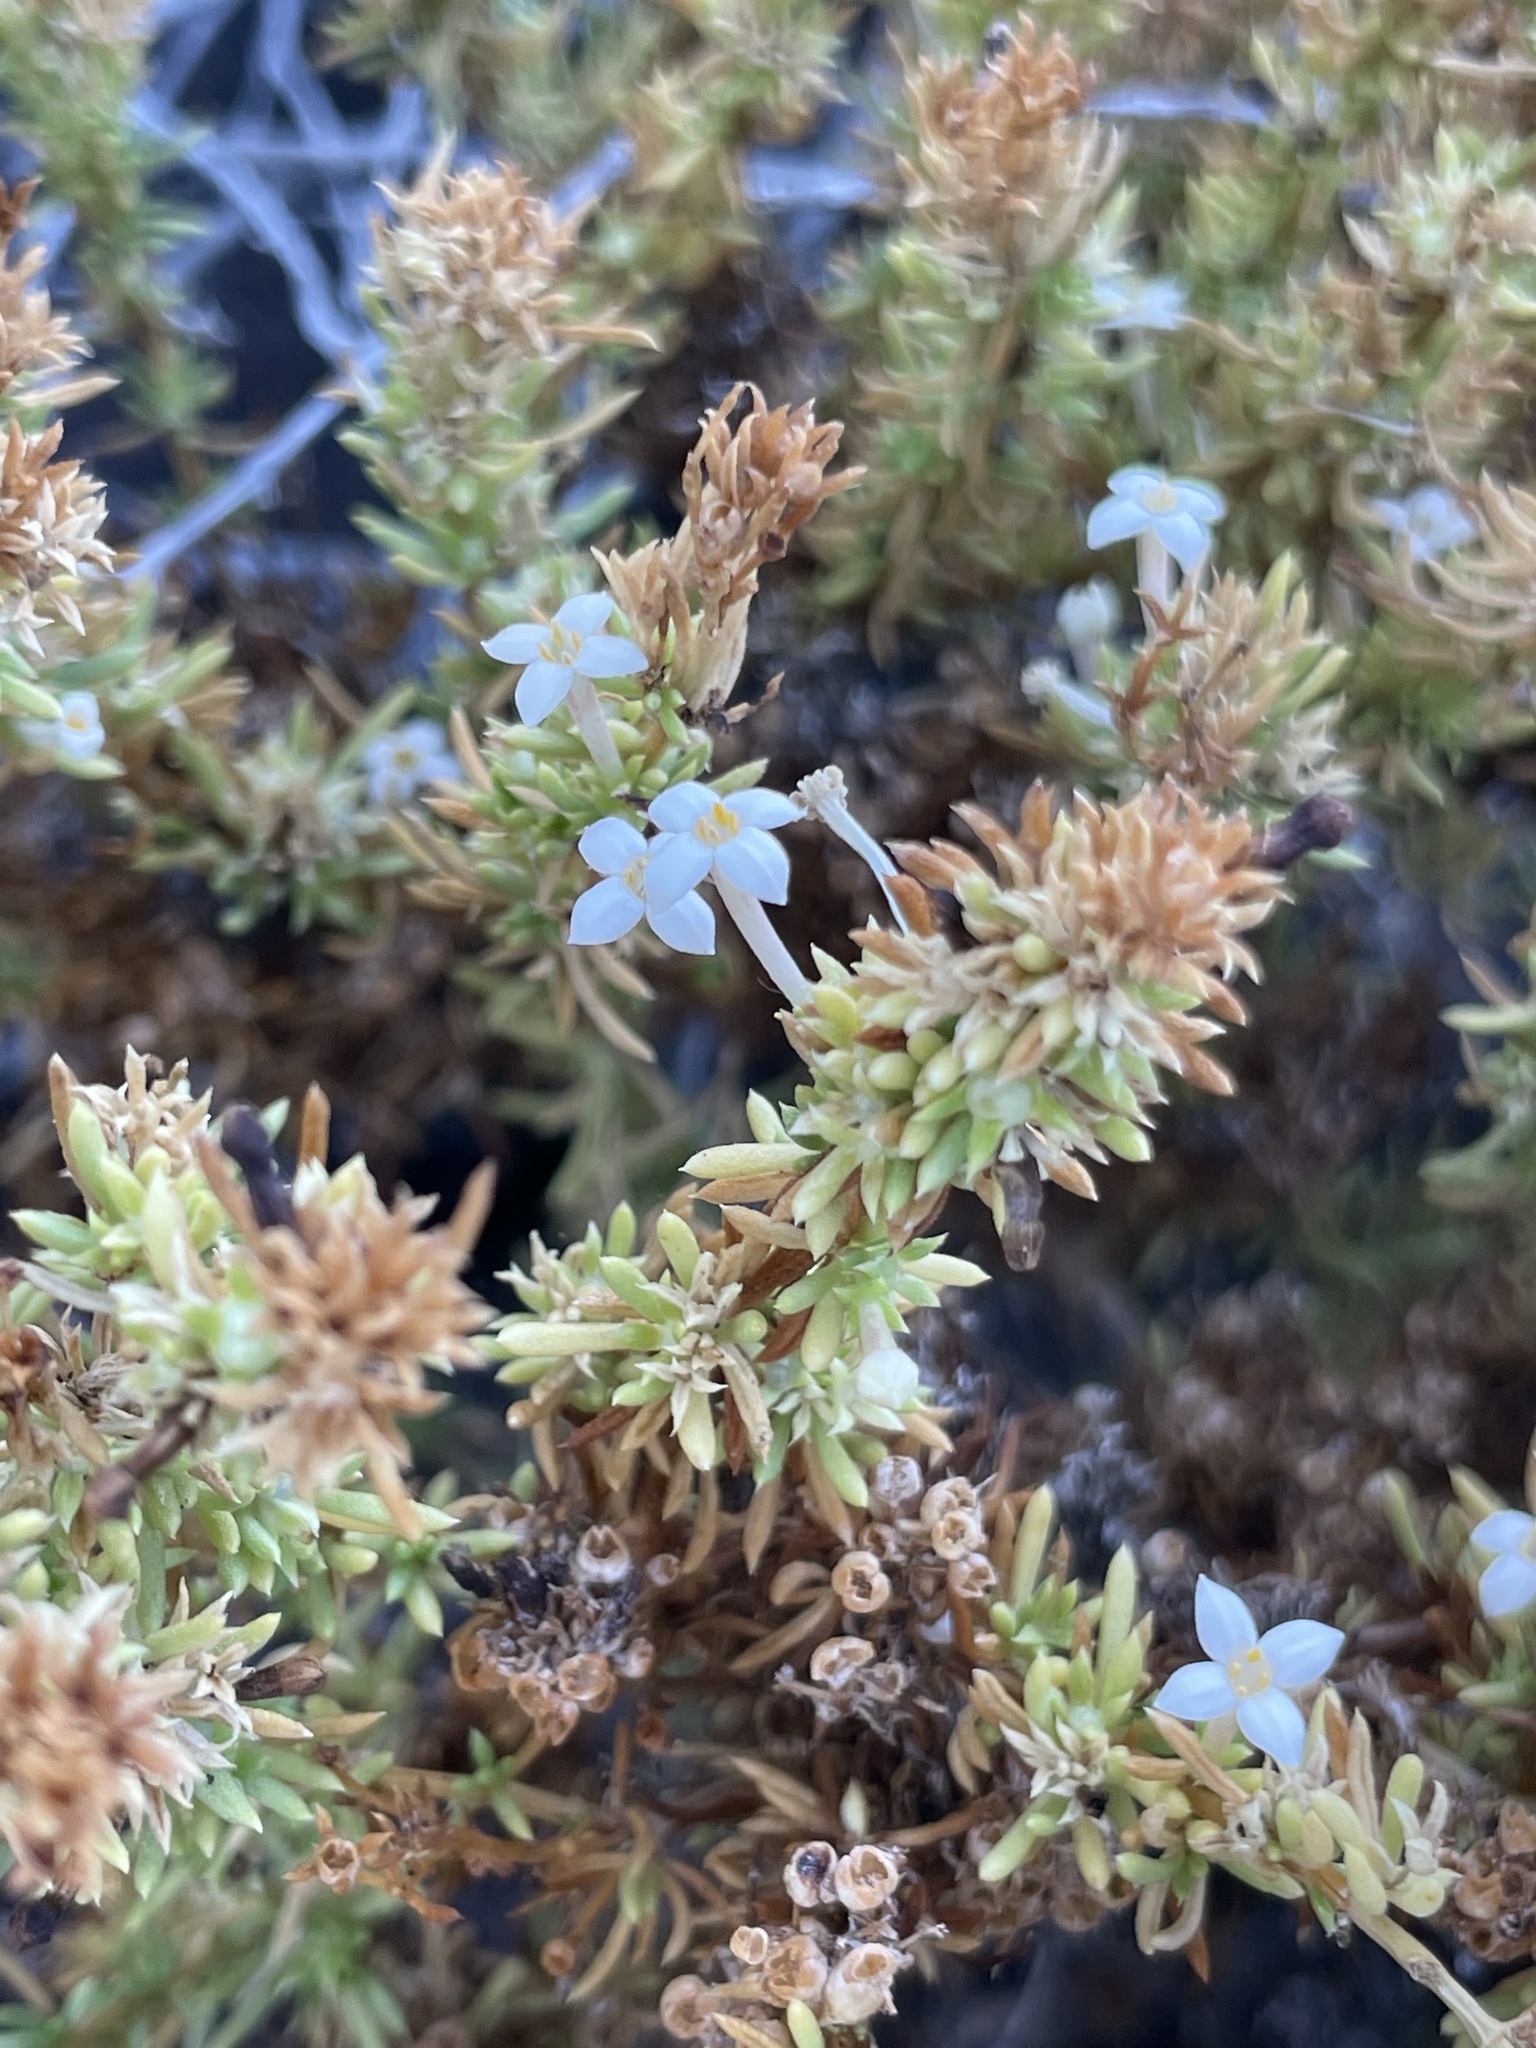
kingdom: Plantae
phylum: Tracheophyta
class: Magnoliopsida
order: Gentianales
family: Rubiaceae
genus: Stenotis
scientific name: Stenotis mucronata
